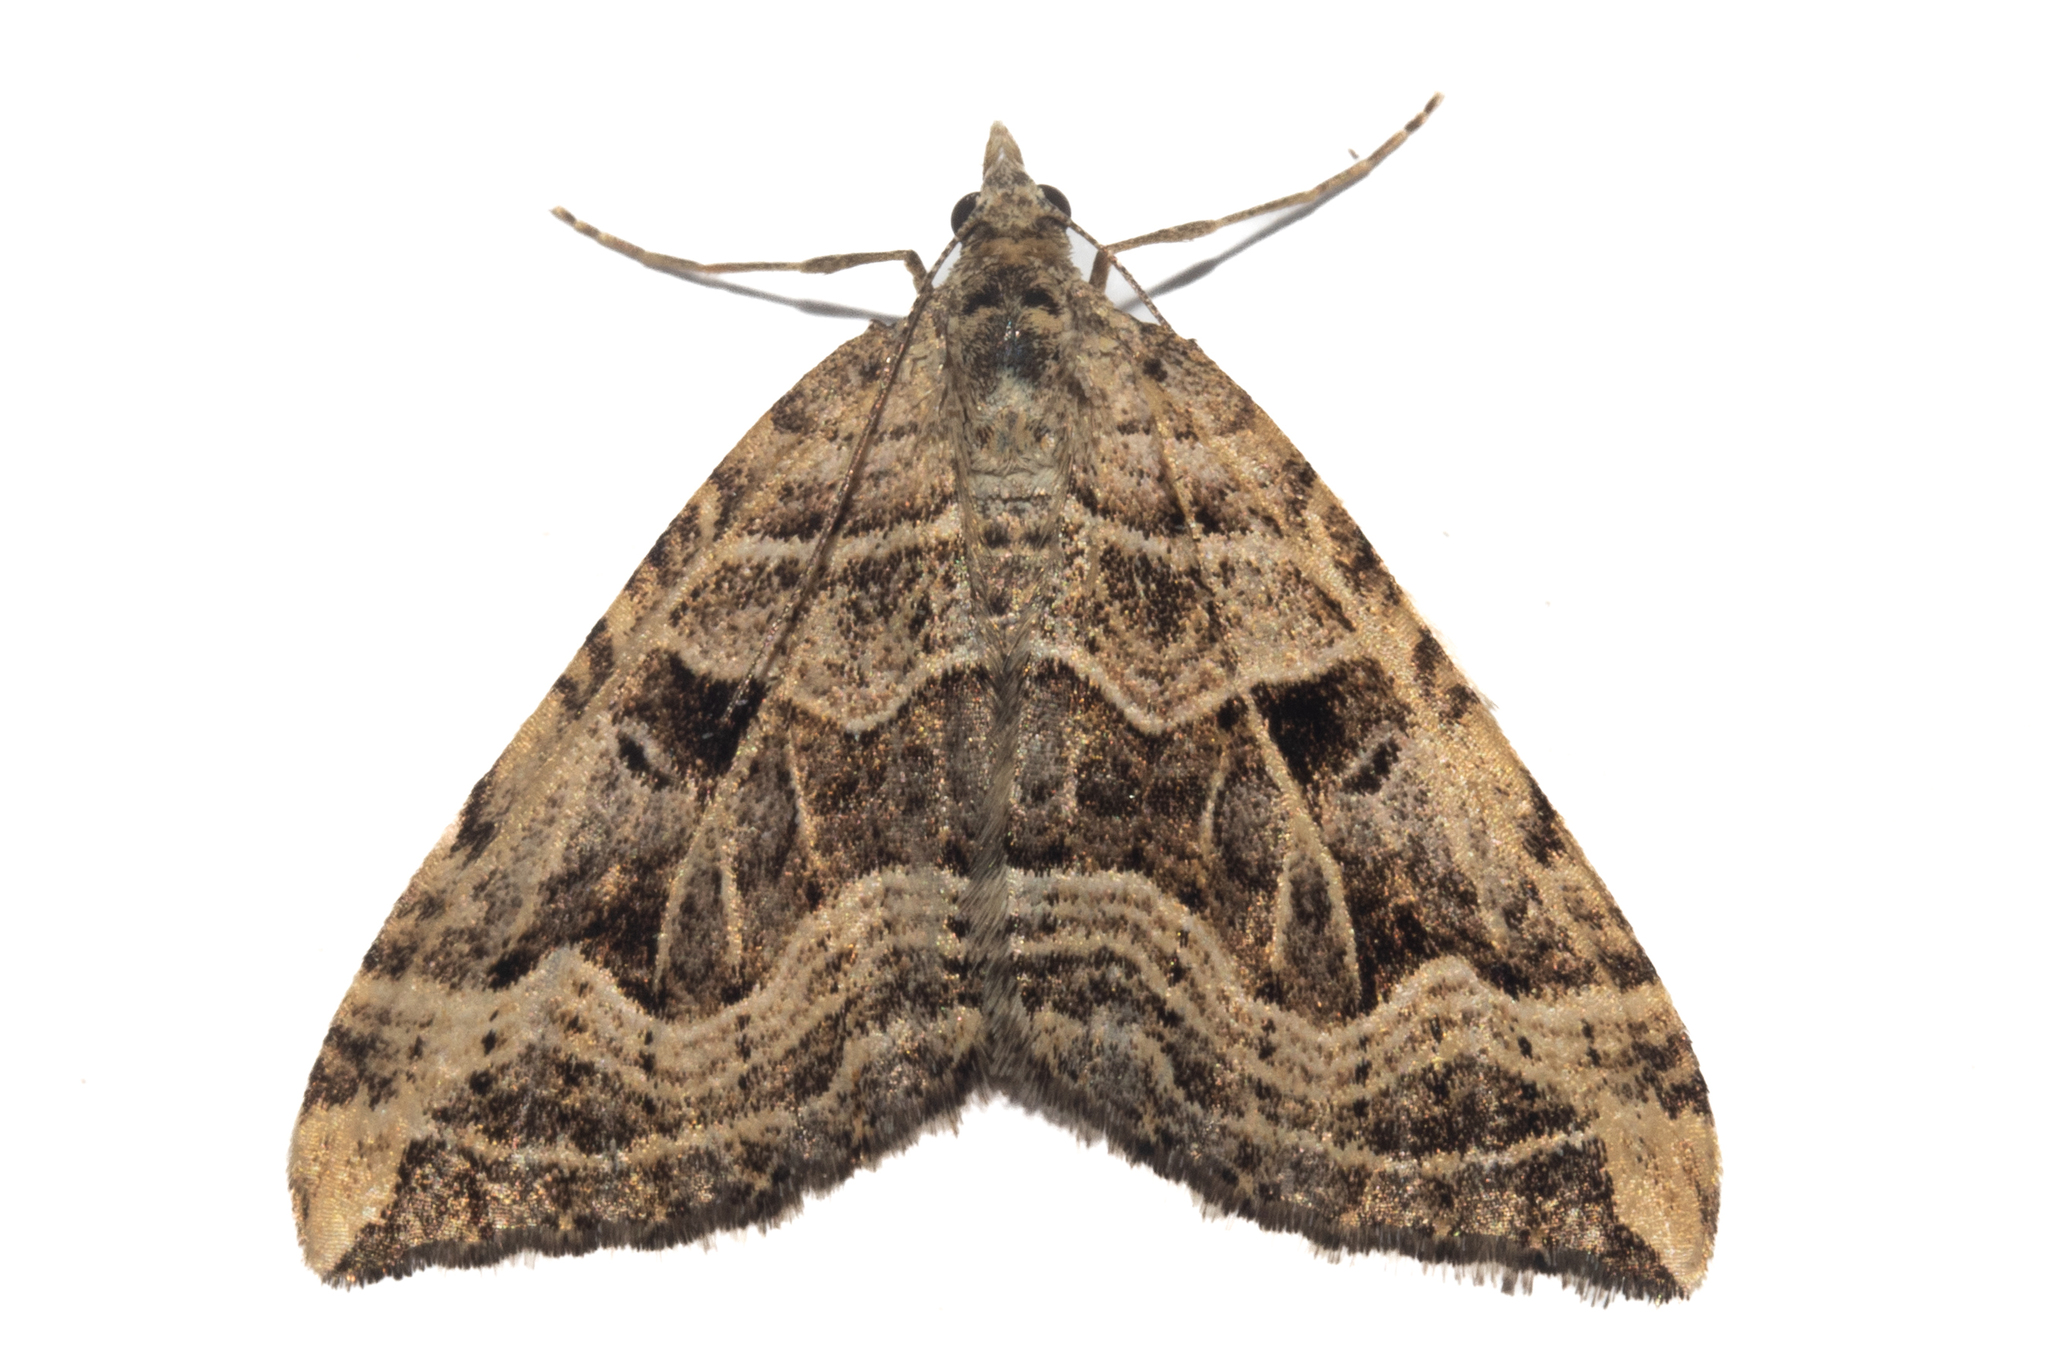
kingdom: Animalia
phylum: Arthropoda
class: Insecta
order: Lepidoptera
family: Geometridae
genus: Xanthorhoe
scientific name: Xanthorhoe semifissata
